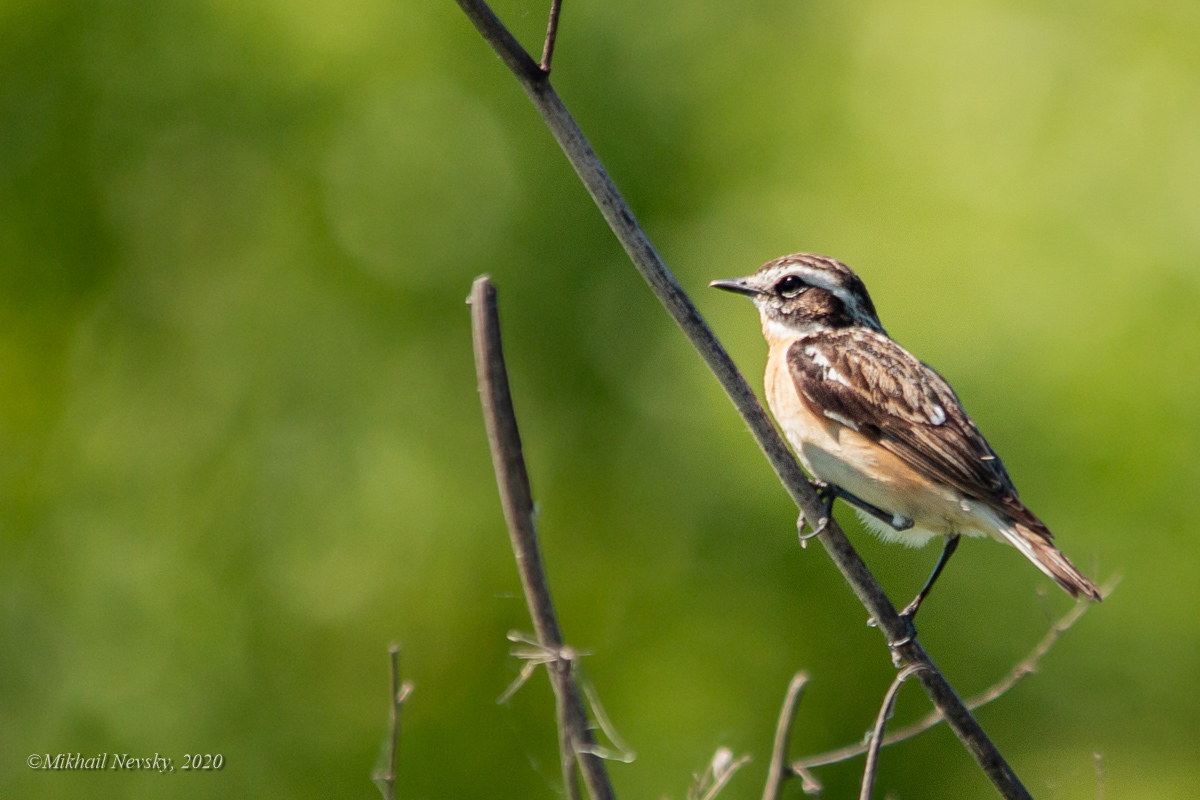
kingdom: Animalia
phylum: Chordata
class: Aves
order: Passeriformes
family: Muscicapidae
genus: Saxicola
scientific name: Saxicola rubetra
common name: Whinchat
